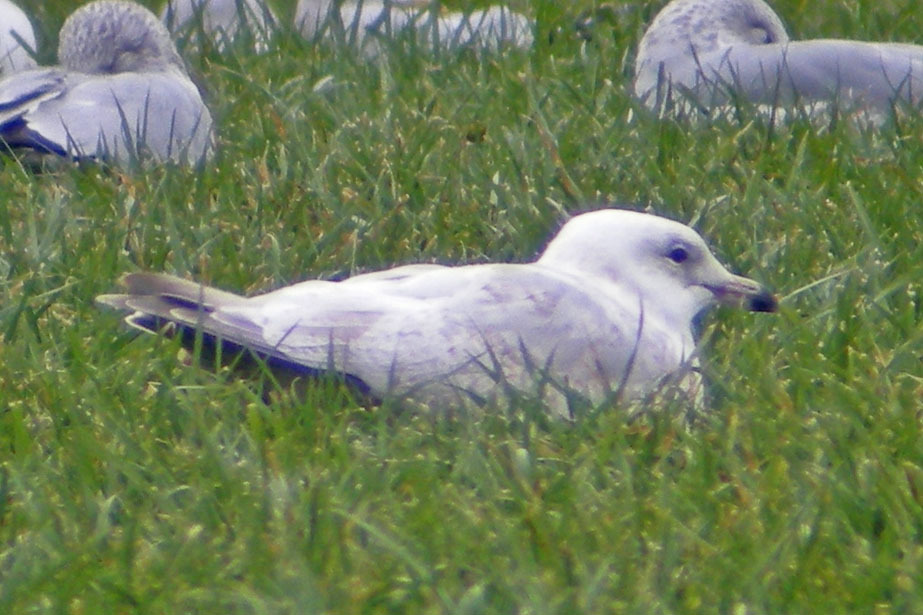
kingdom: Animalia
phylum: Chordata
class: Aves
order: Charadriiformes
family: Laridae
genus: Larus
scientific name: Larus glaucoides
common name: Iceland gull
